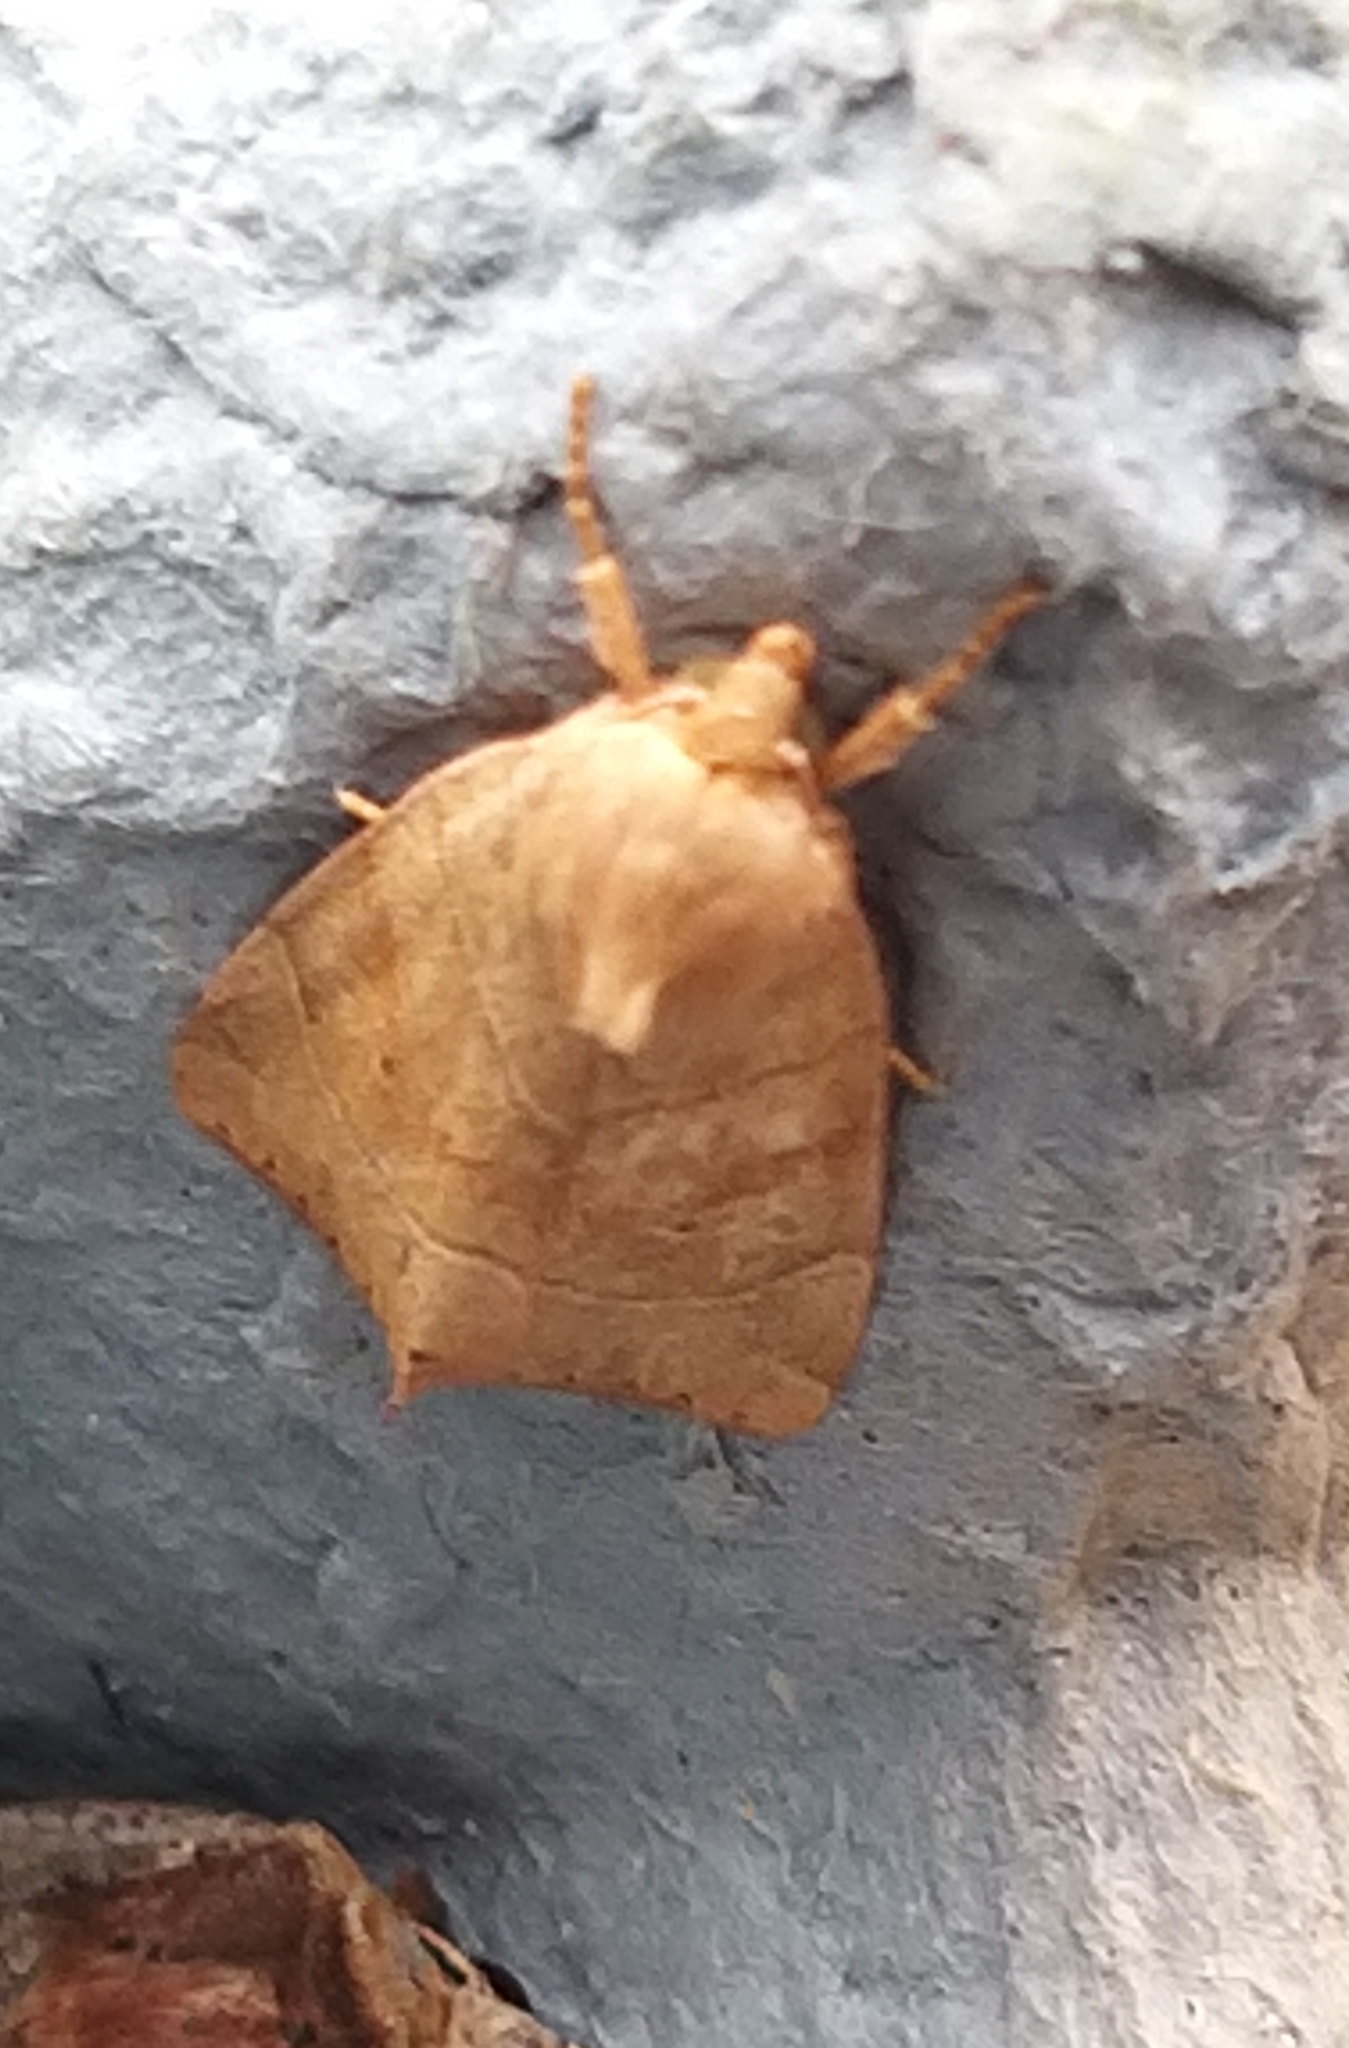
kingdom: Animalia
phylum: Arthropoda
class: Insecta
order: Lepidoptera
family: Noctuidae
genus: Cosmia
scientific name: Cosmia trapezina
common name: Dun-bar
